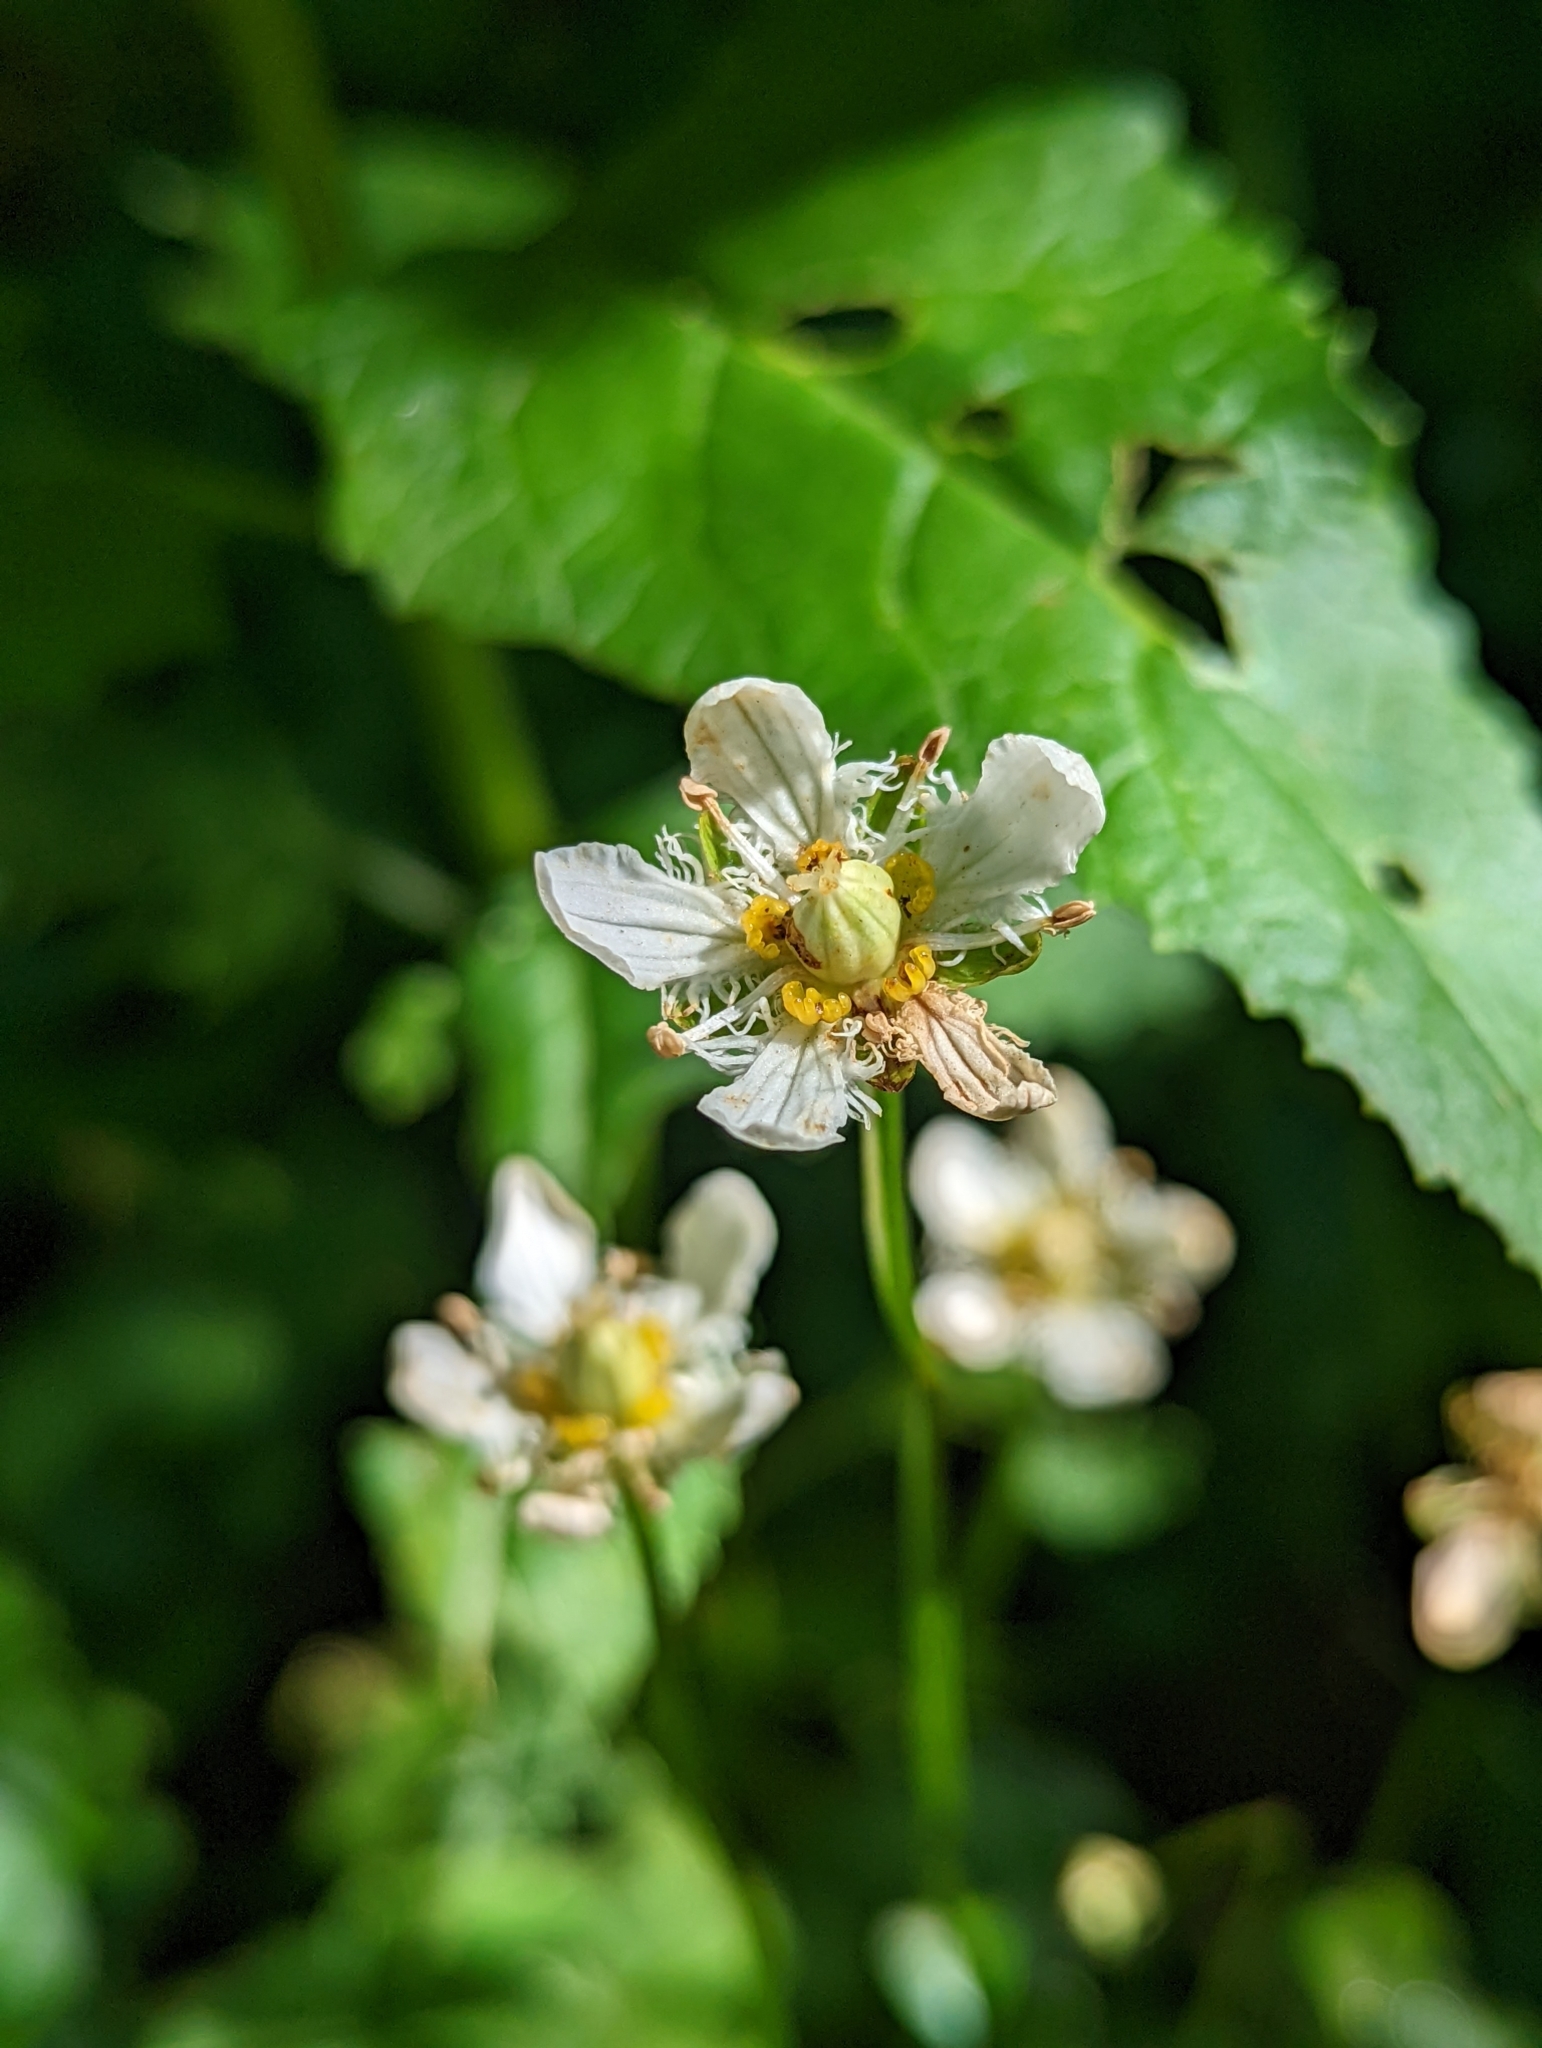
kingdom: Plantae
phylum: Tracheophyta
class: Magnoliopsida
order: Celastrales
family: Parnassiaceae
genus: Parnassia
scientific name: Parnassia fimbriata
